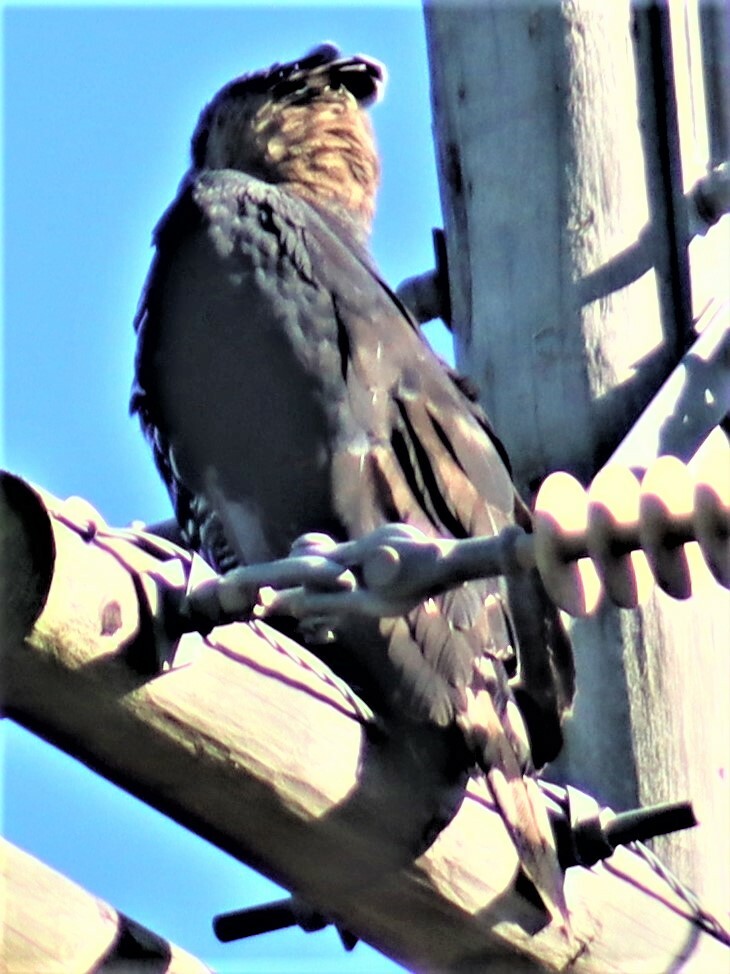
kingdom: Animalia
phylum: Chordata
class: Aves
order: Accipitriformes
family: Accipitridae
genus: Stephanoaetus
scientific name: Stephanoaetus coronatus
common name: Crowned eagle
